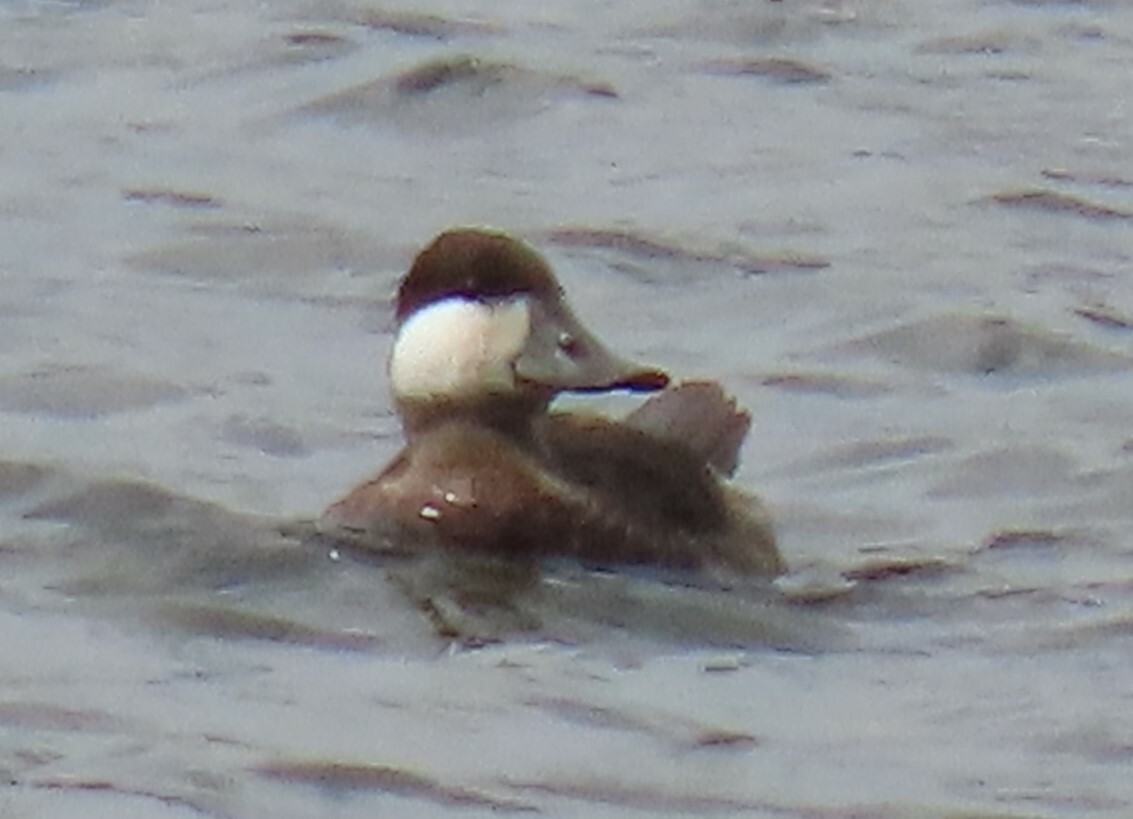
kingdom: Animalia
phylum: Chordata
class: Aves
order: Anseriformes
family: Anatidae
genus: Oxyura
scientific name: Oxyura jamaicensis
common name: Ruddy duck
